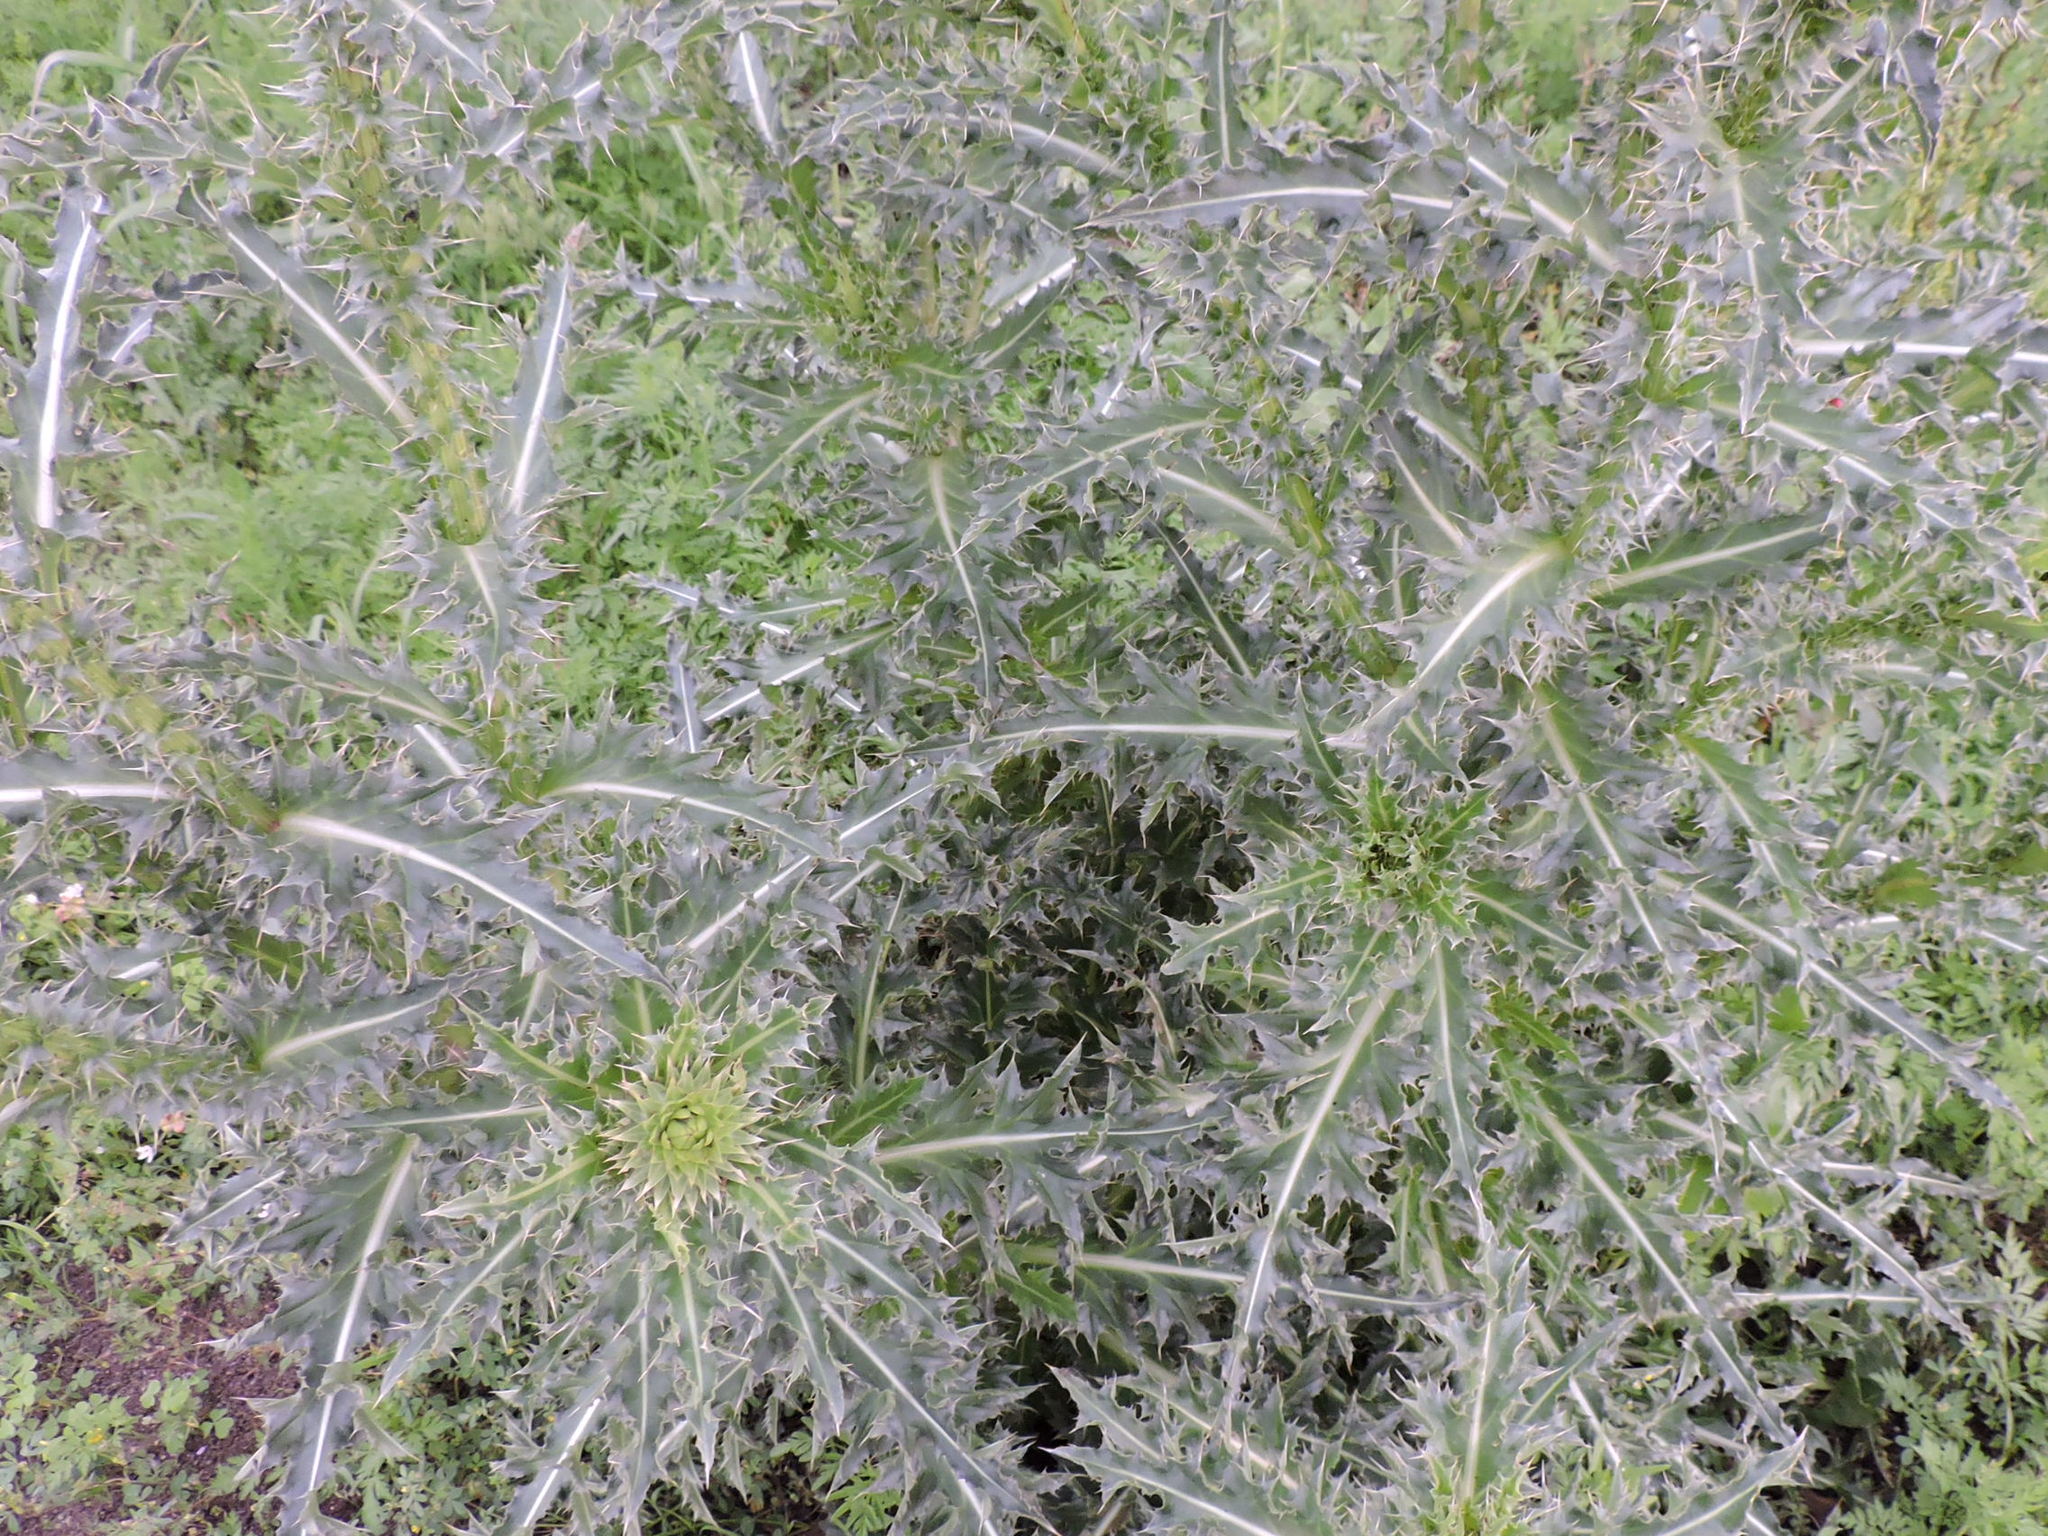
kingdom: Plantae
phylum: Tracheophyta
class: Magnoliopsida
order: Asterales
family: Asteraceae
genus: Carduus
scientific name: Carduus nutans
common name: Musk thistle
